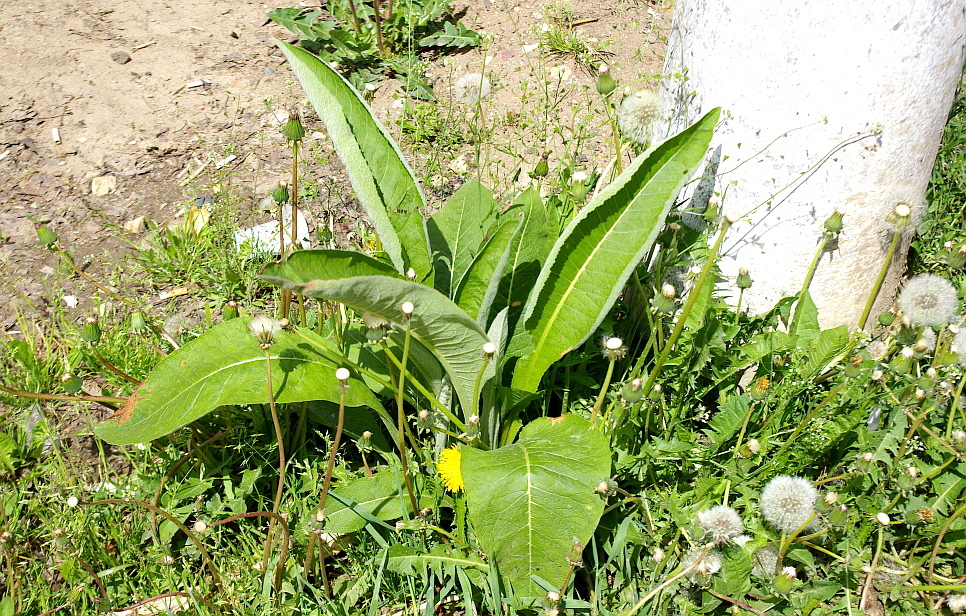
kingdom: Plantae
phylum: Tracheophyta
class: Magnoliopsida
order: Asterales
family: Asteraceae
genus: Inula
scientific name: Inula helenium
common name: Elecampane
